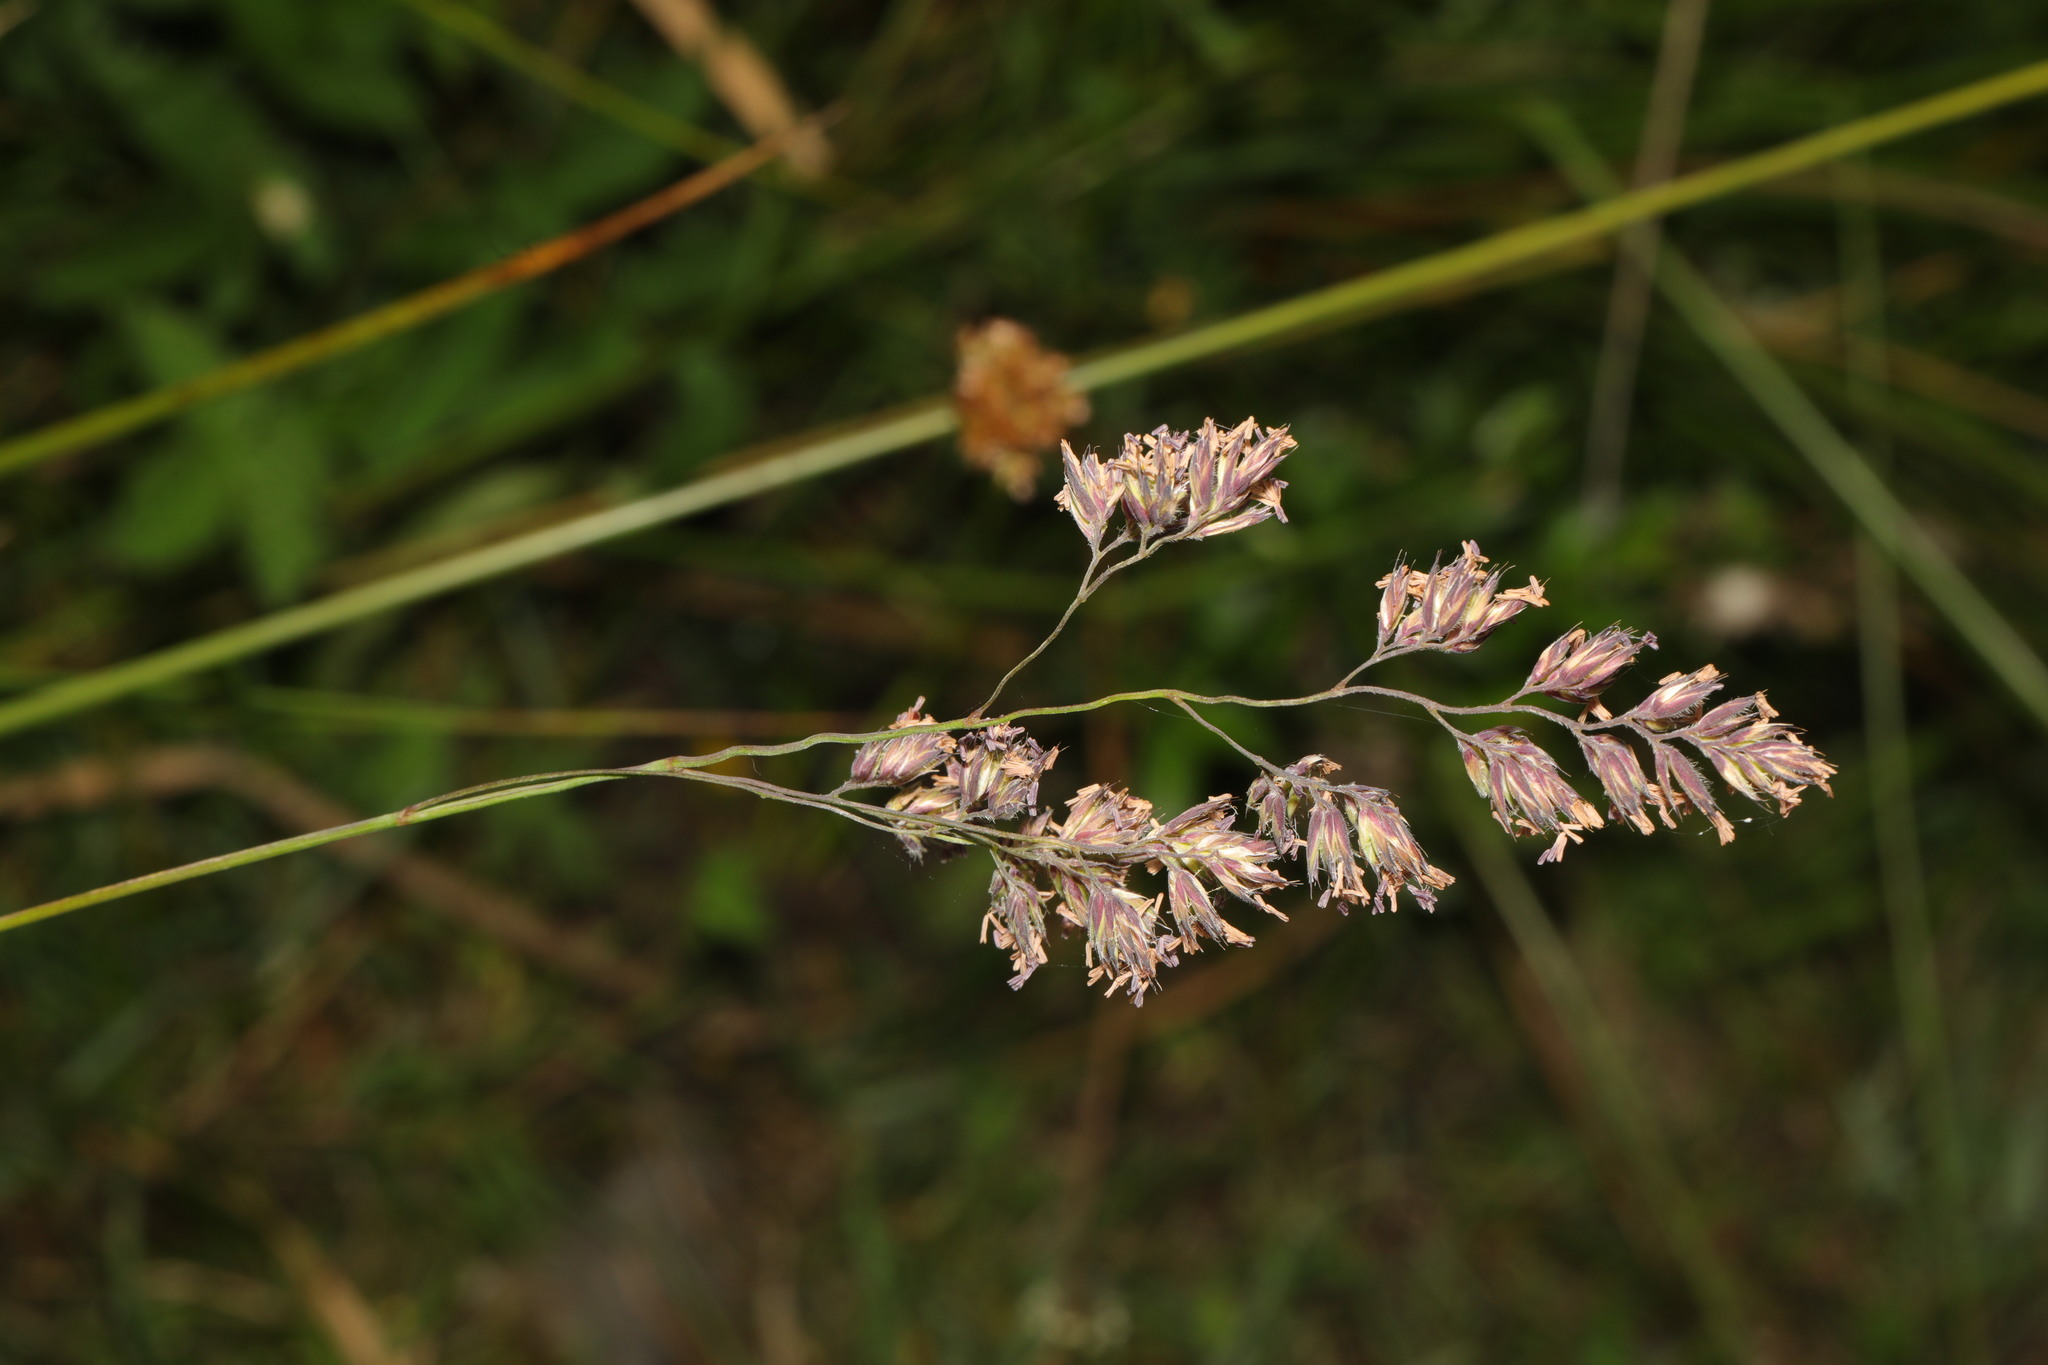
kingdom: Plantae
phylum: Tracheophyta
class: Liliopsida
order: Poales
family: Poaceae
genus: Dactylis
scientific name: Dactylis glomerata
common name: Orchardgrass
